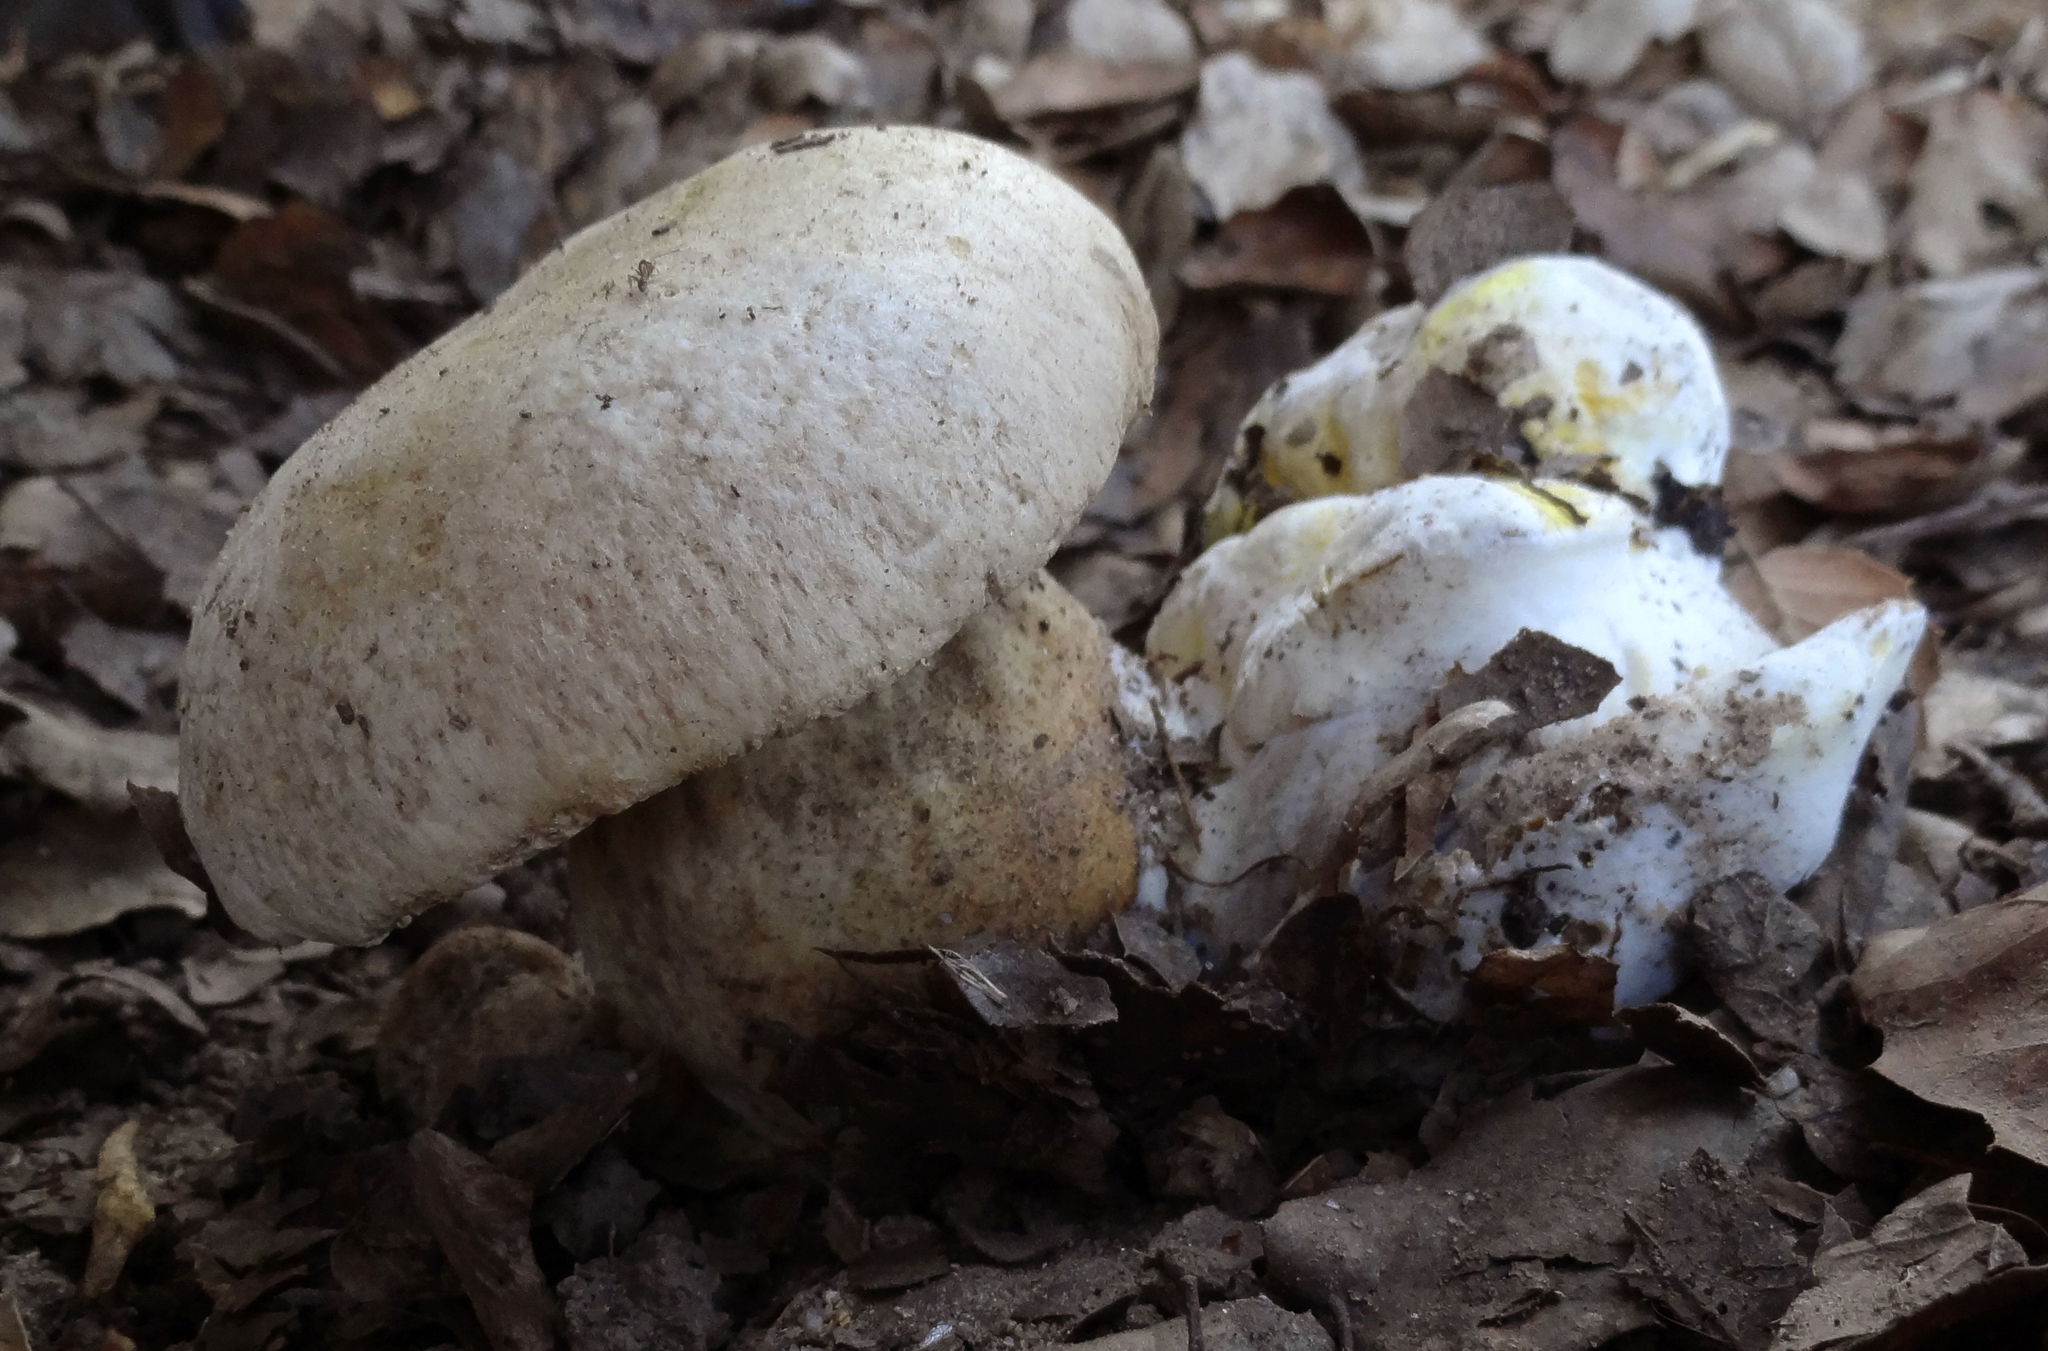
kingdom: Fungi
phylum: Basidiomycota
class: Agaricomycetes
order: Boletales
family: Boletaceae
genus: Caloboletus
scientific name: Caloboletus marshii
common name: Ben's bitter bolete
